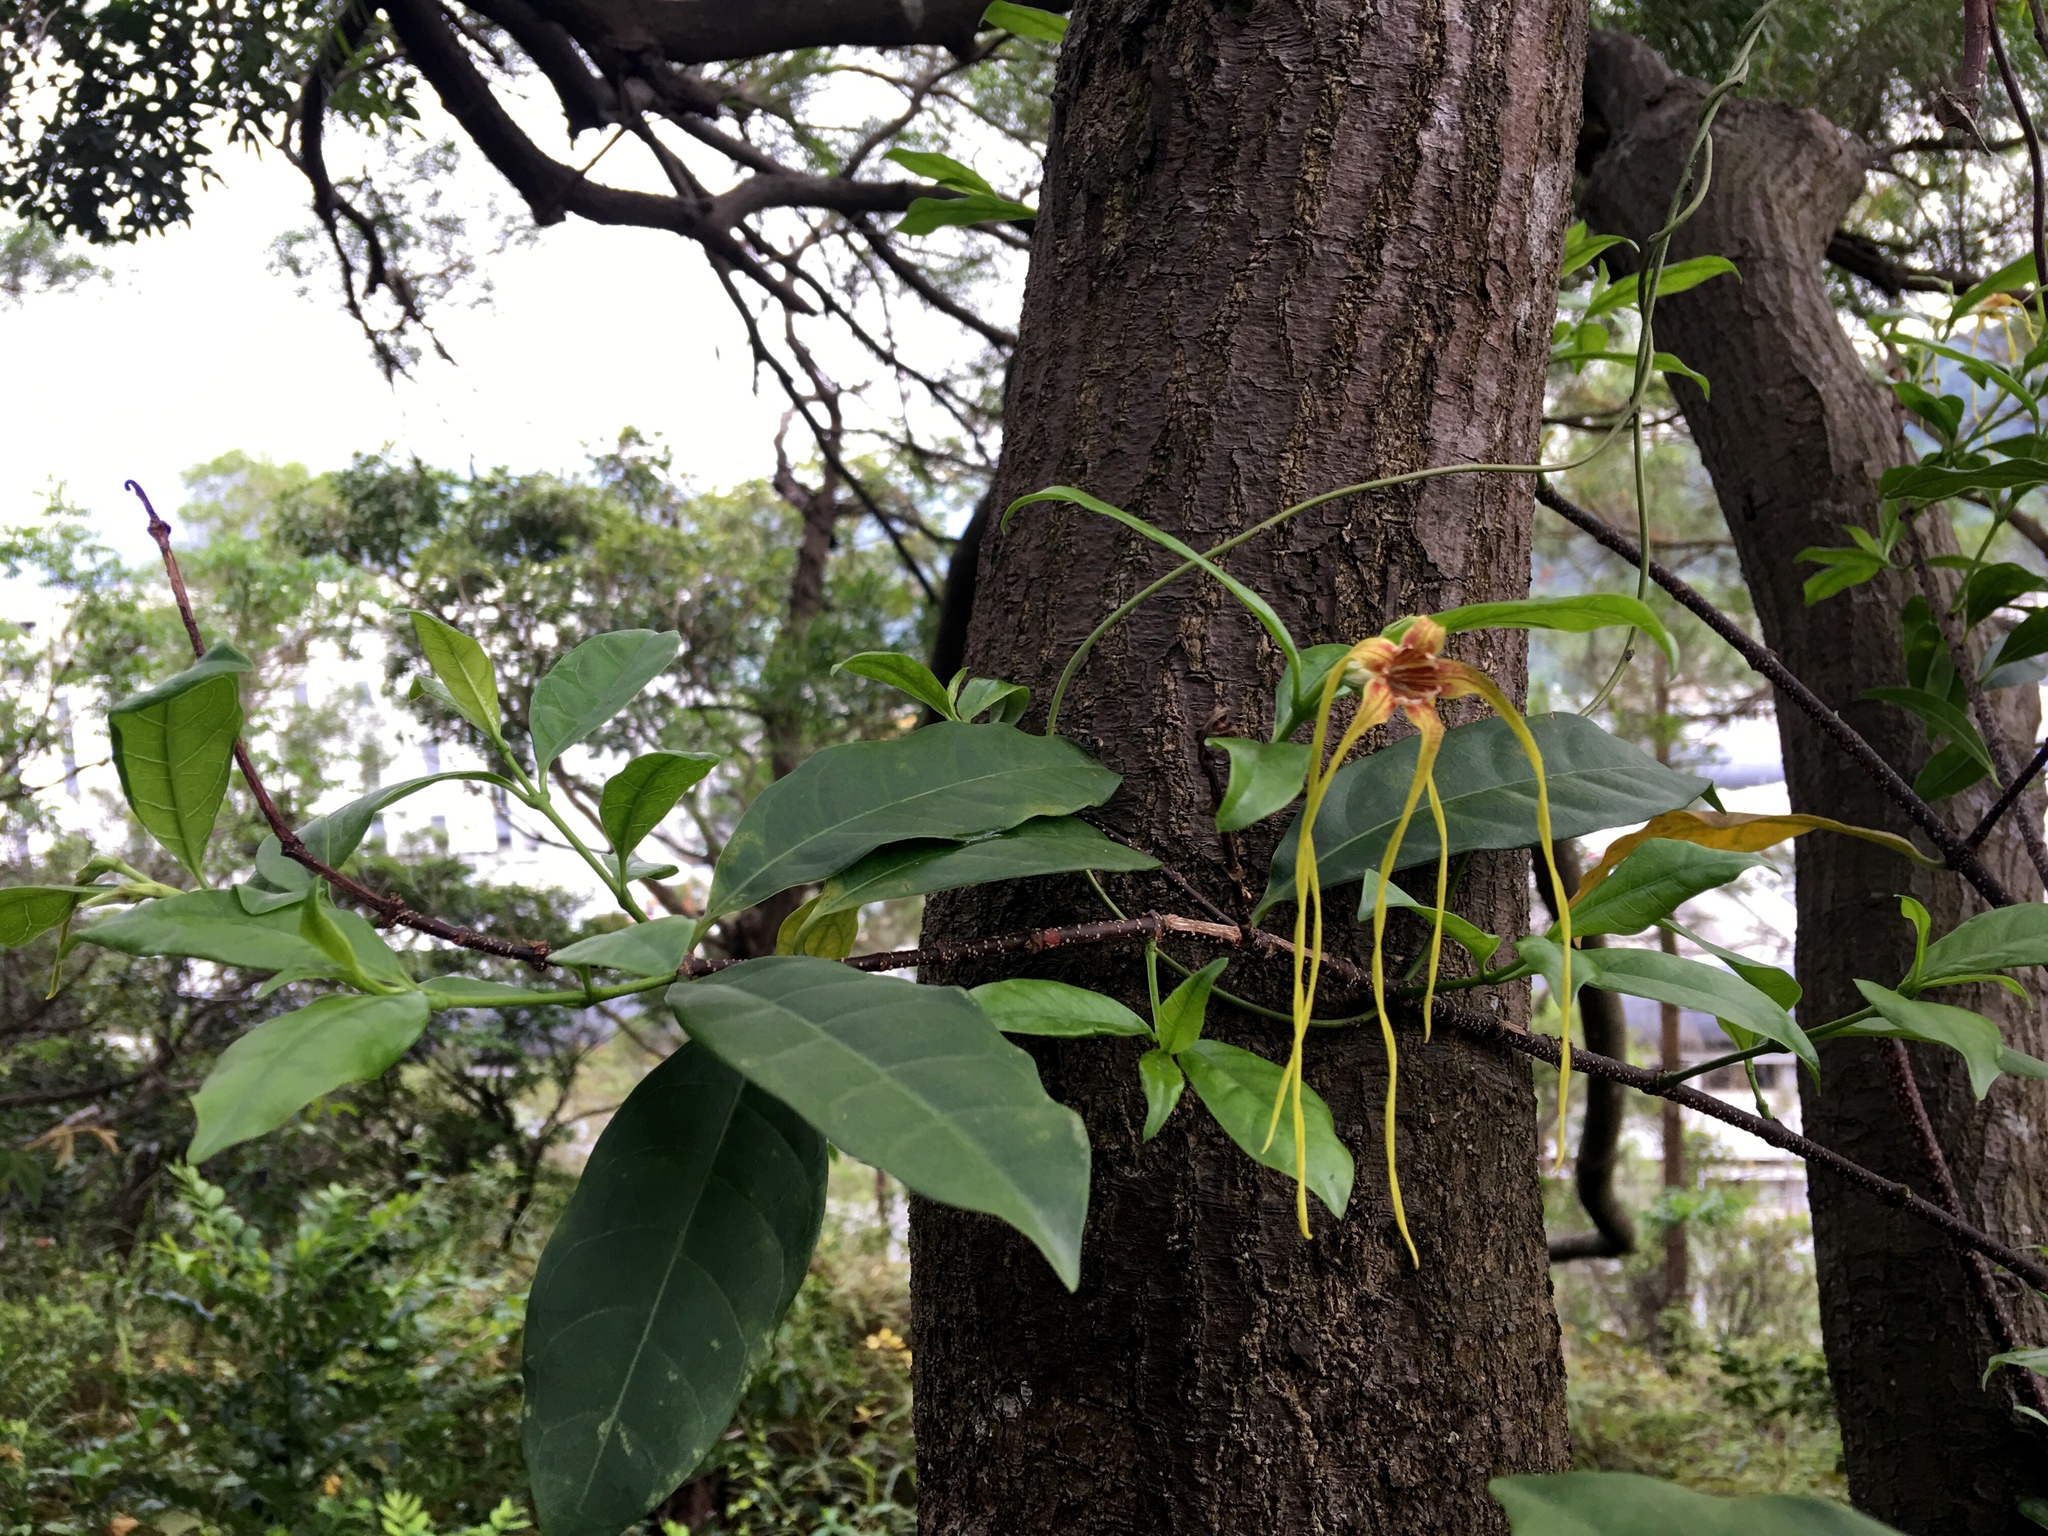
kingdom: Plantae
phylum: Tracheophyta
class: Magnoliopsida
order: Gentianales
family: Apocynaceae
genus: Strophanthus
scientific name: Strophanthus divaricatus
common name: Goat-horns
